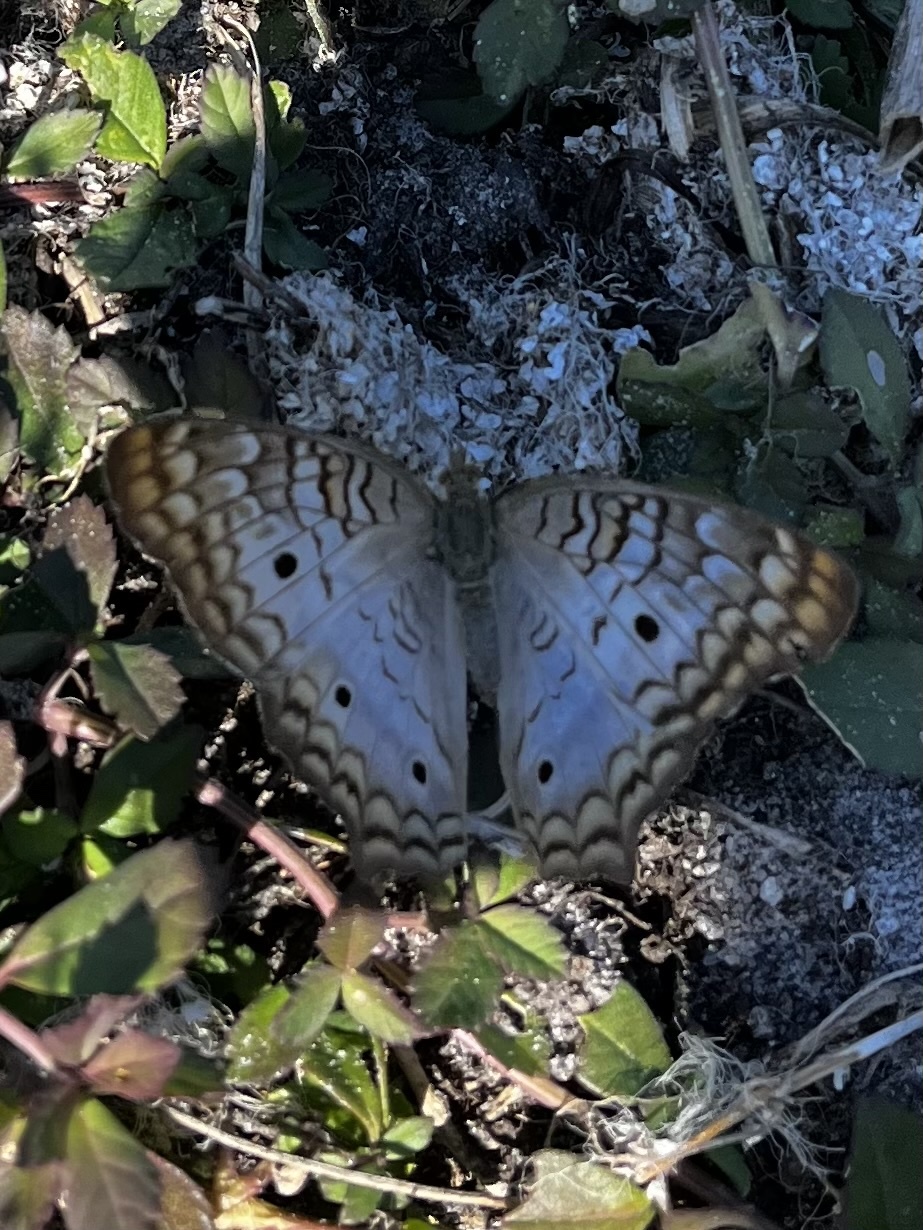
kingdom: Animalia
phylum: Arthropoda
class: Insecta
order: Lepidoptera
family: Nymphalidae
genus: Anartia
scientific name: Anartia jatrophae
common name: White peacock
